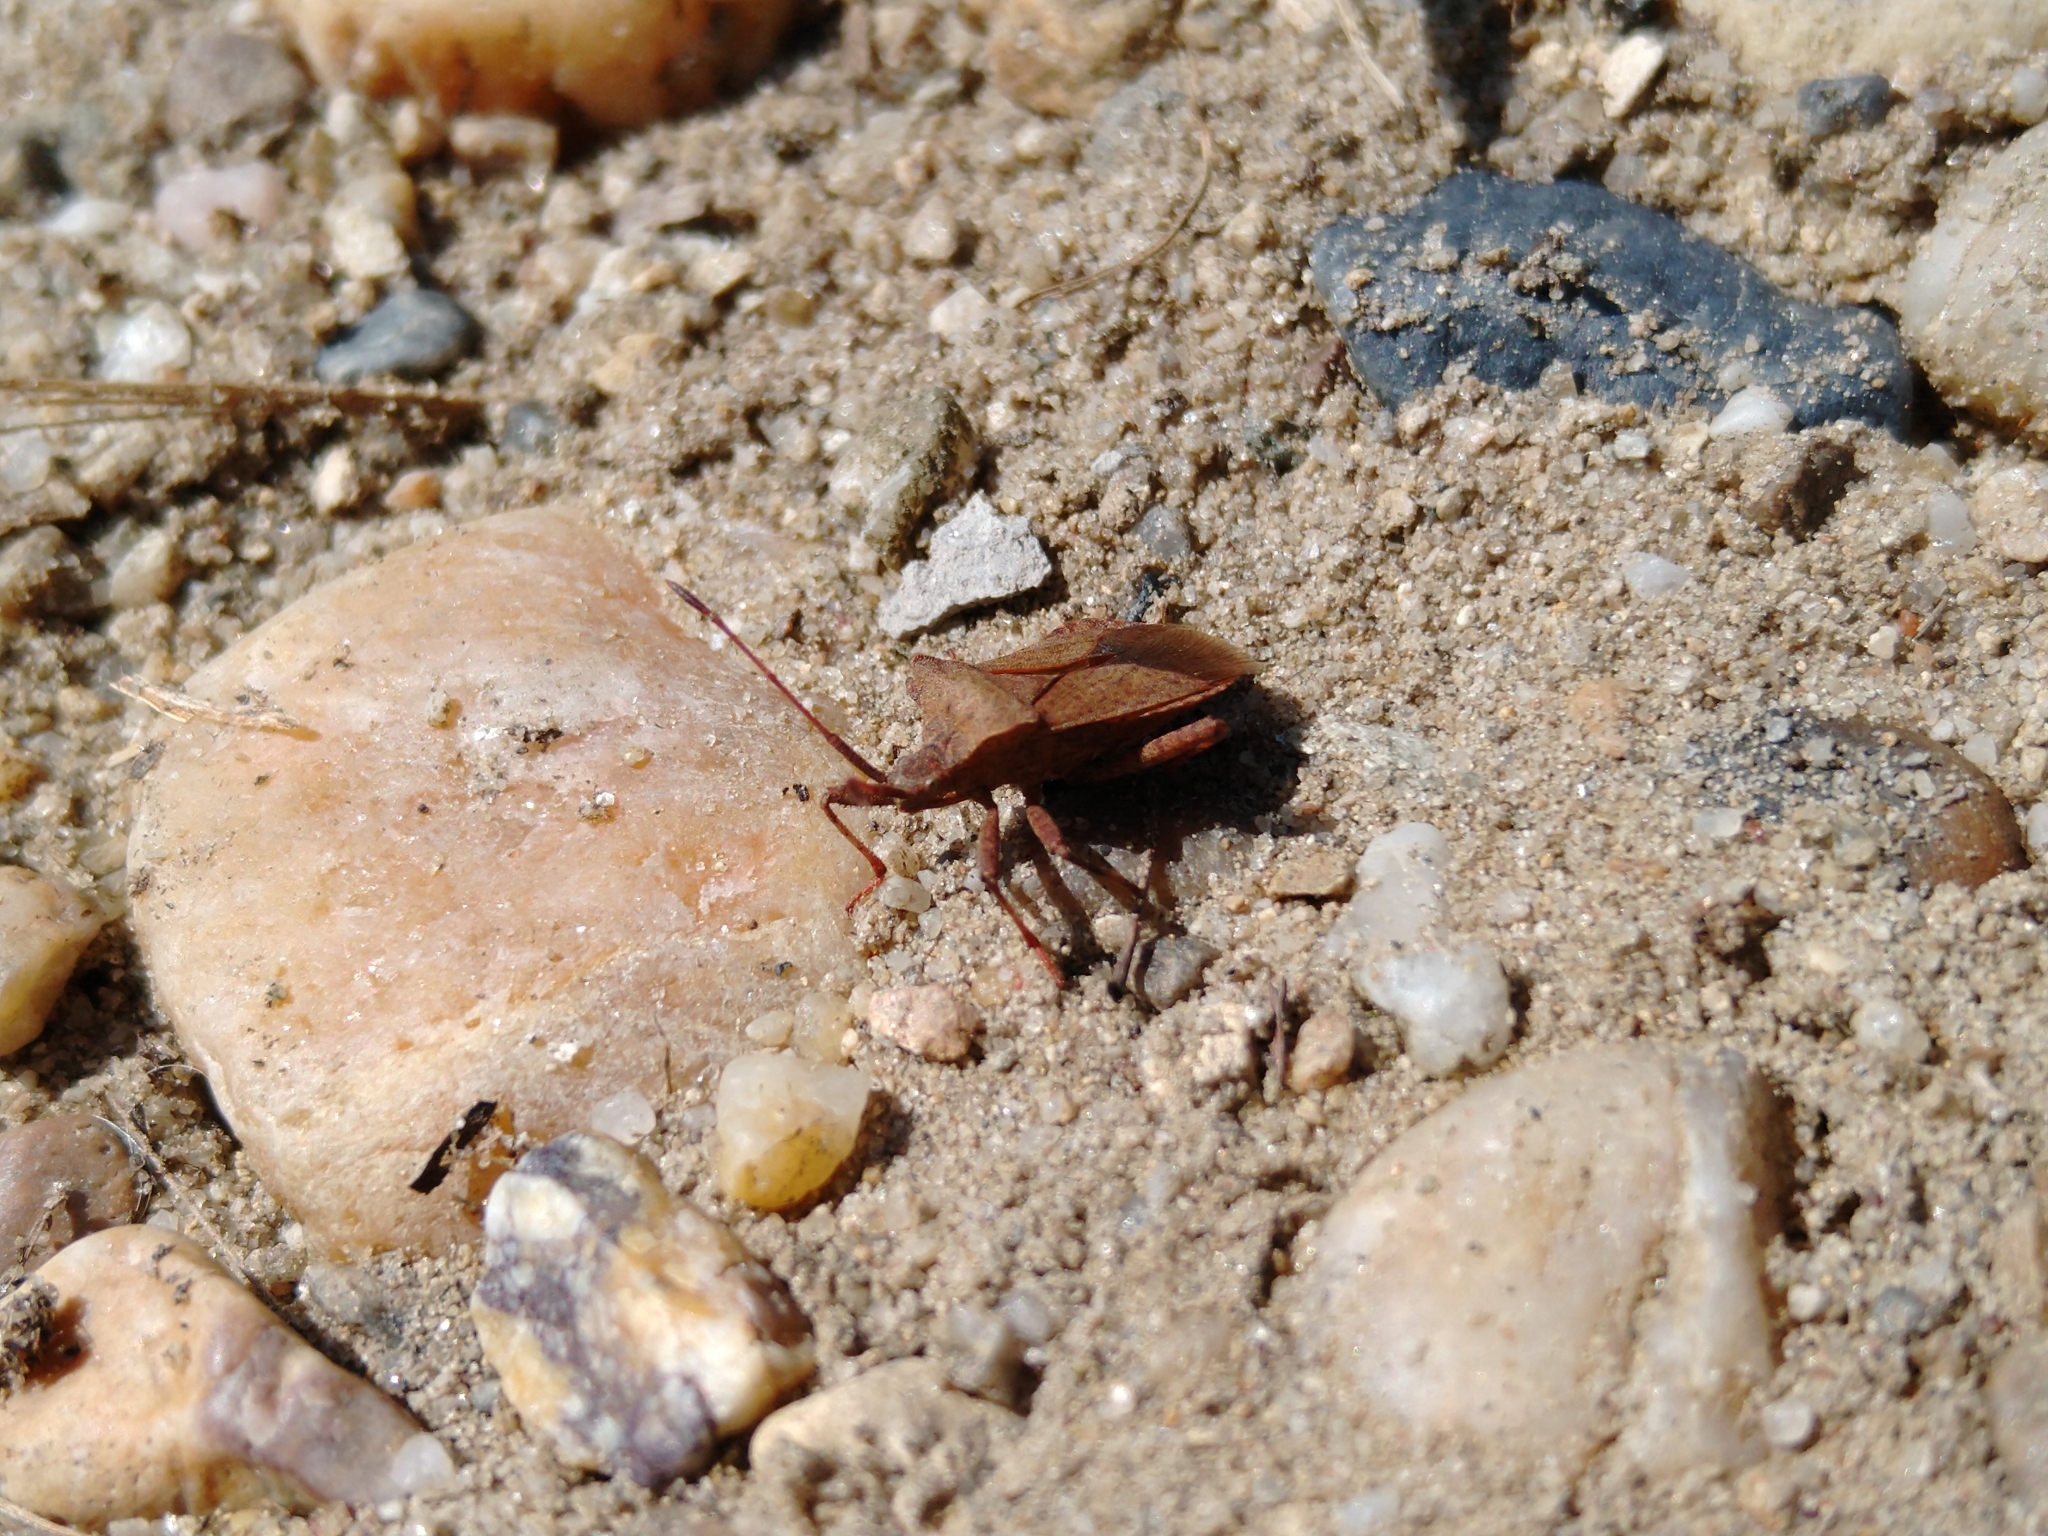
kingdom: Animalia
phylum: Arthropoda
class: Insecta
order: Hemiptera
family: Coreidae
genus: Coreus
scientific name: Coreus marginatus
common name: Dock bug
